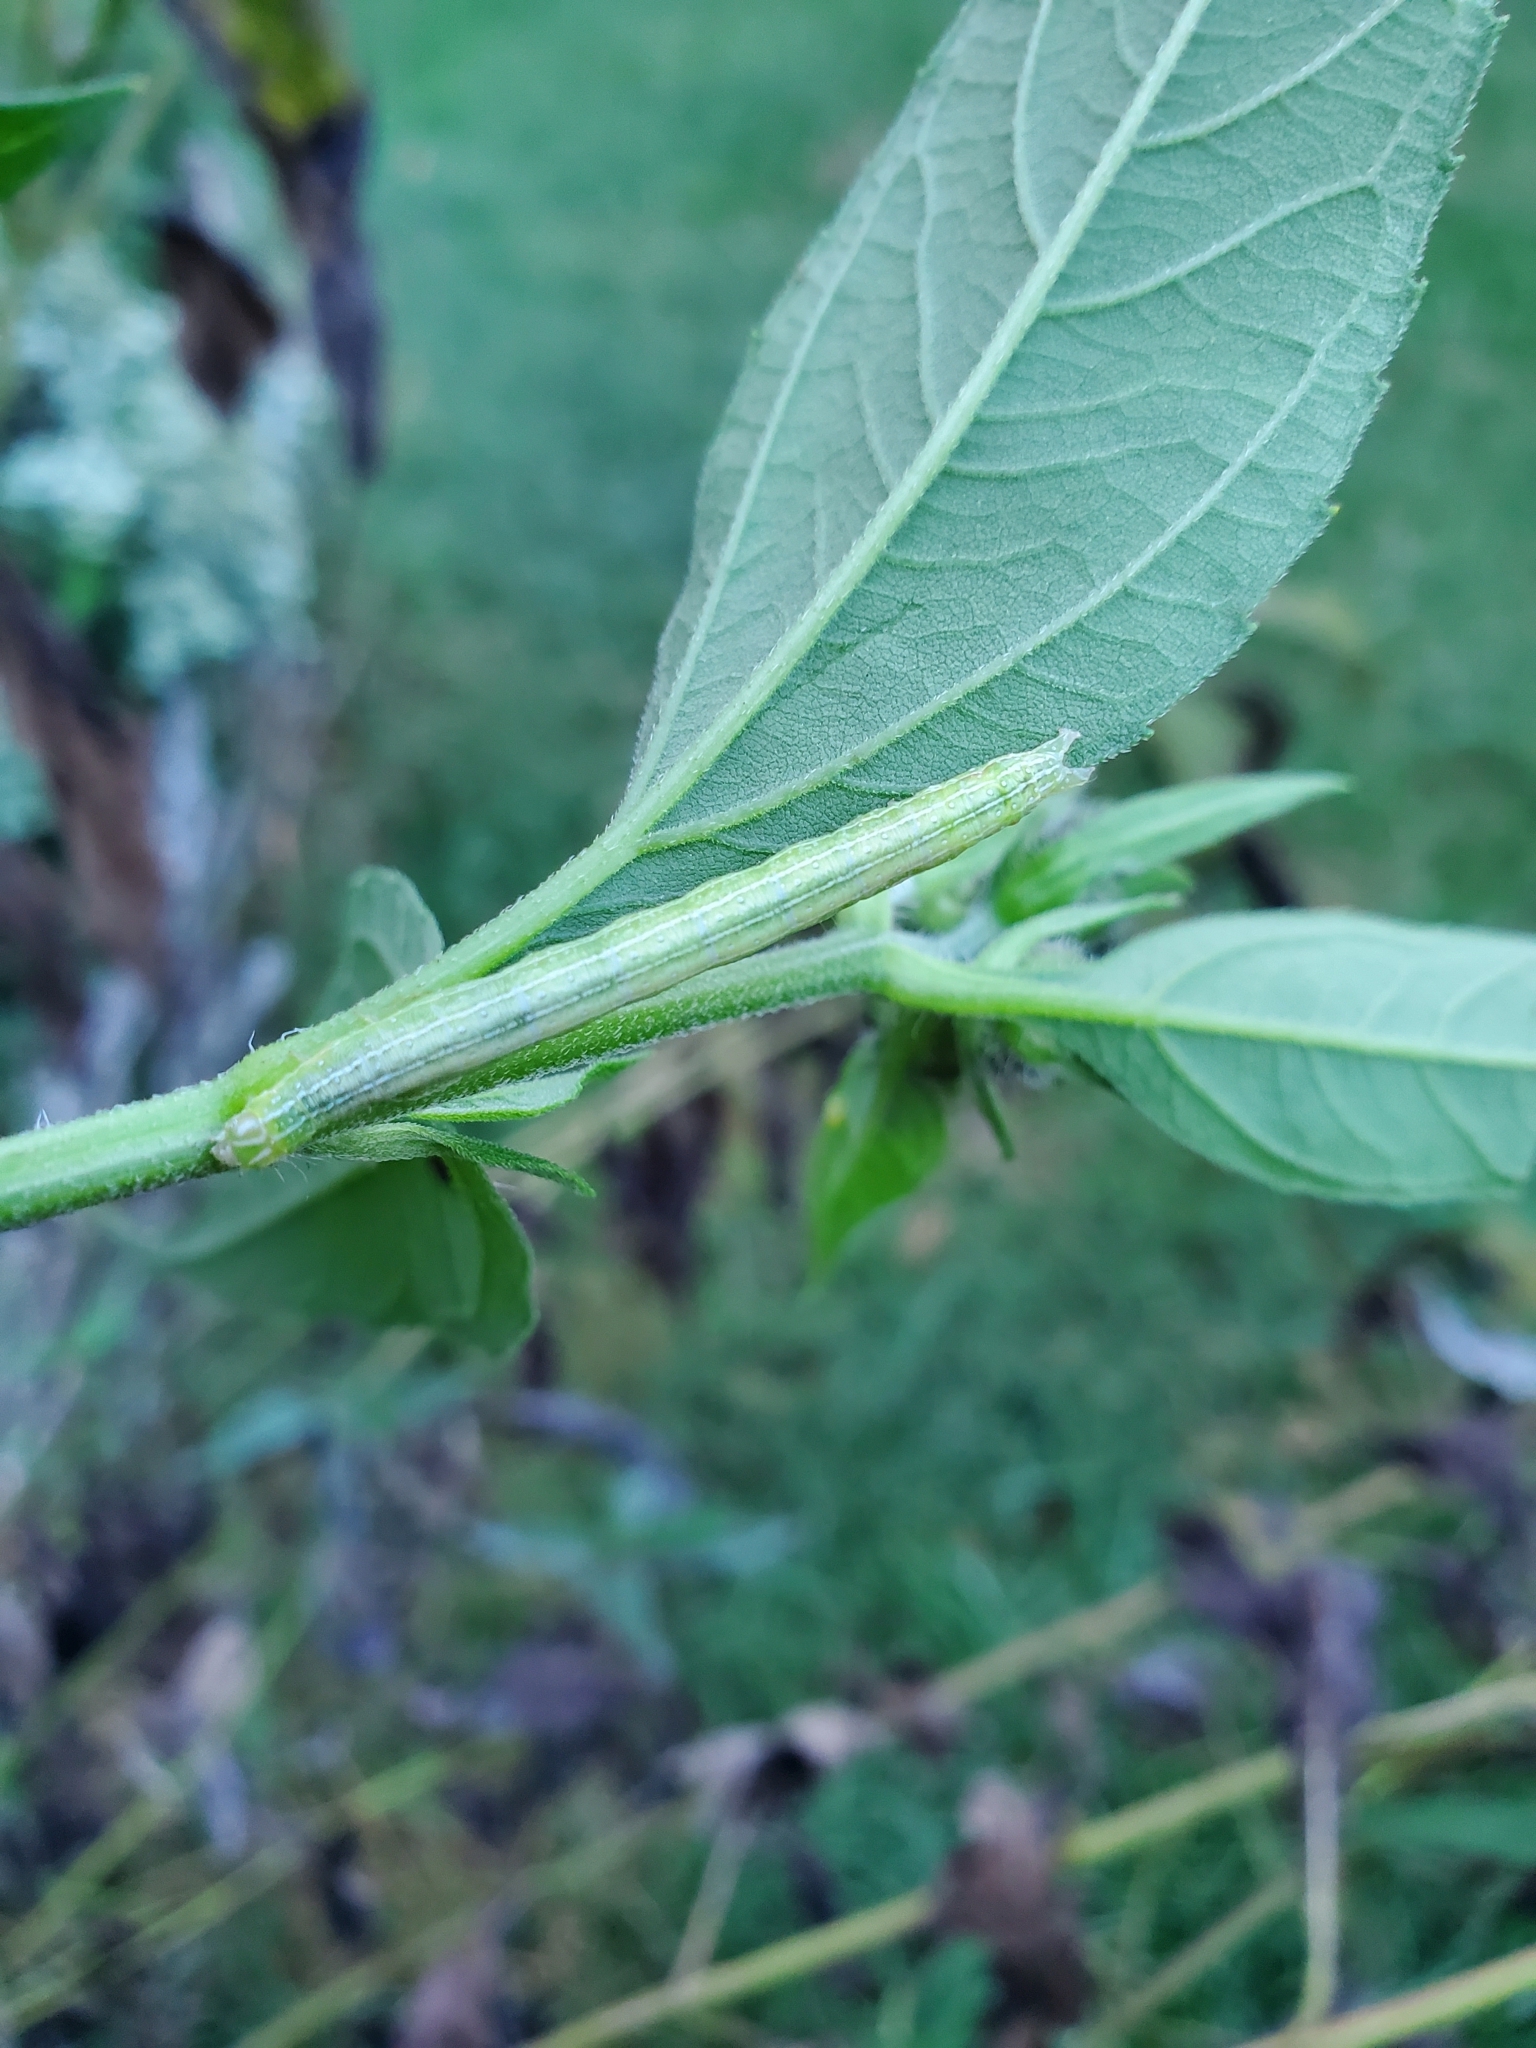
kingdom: Animalia
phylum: Arthropoda
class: Insecta
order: Lepidoptera
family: Noctuidae
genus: Ogdoconta
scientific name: Ogdoconta cinereola
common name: Common pinkband
